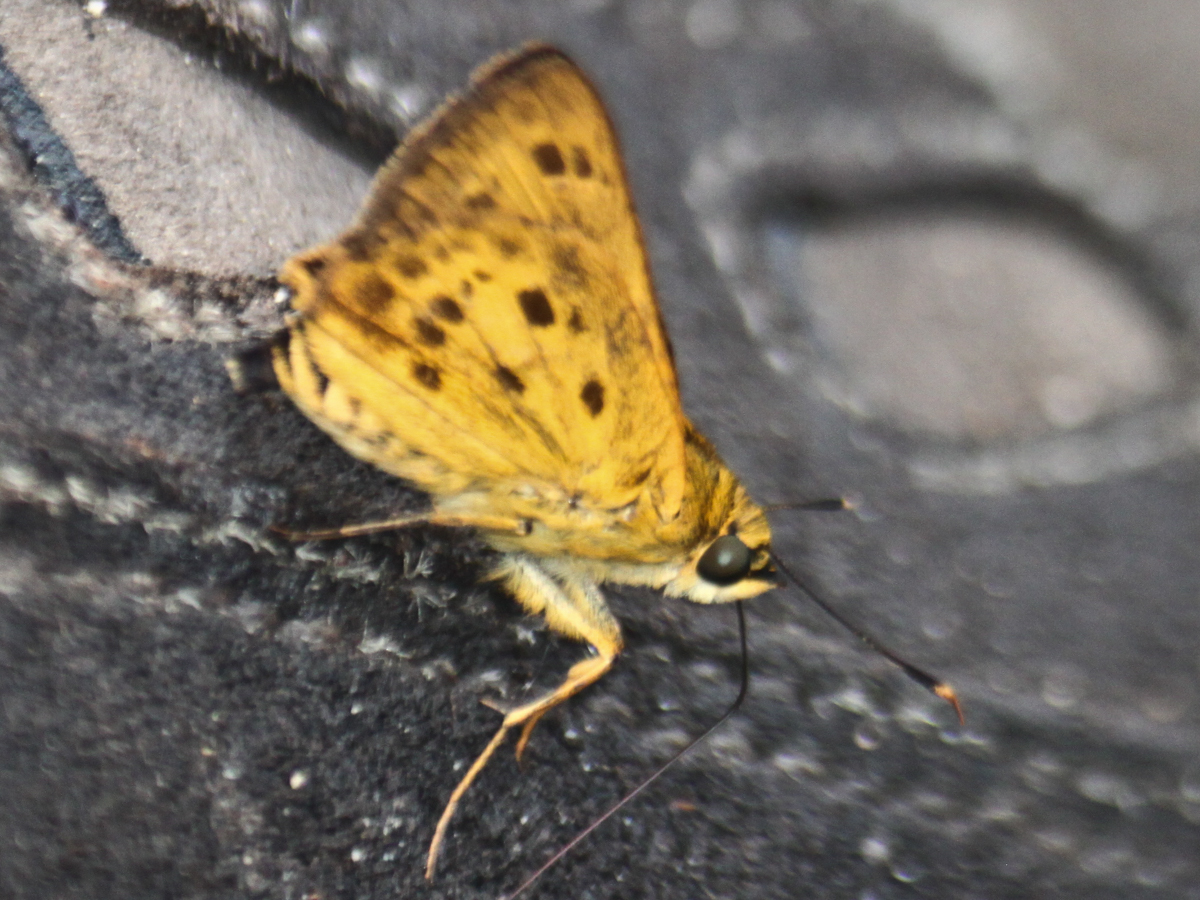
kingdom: Animalia
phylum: Arthropoda
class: Insecta
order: Lepidoptera
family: Hesperiidae
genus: Thoressa
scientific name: Thoressa masoni
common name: Golden ace
